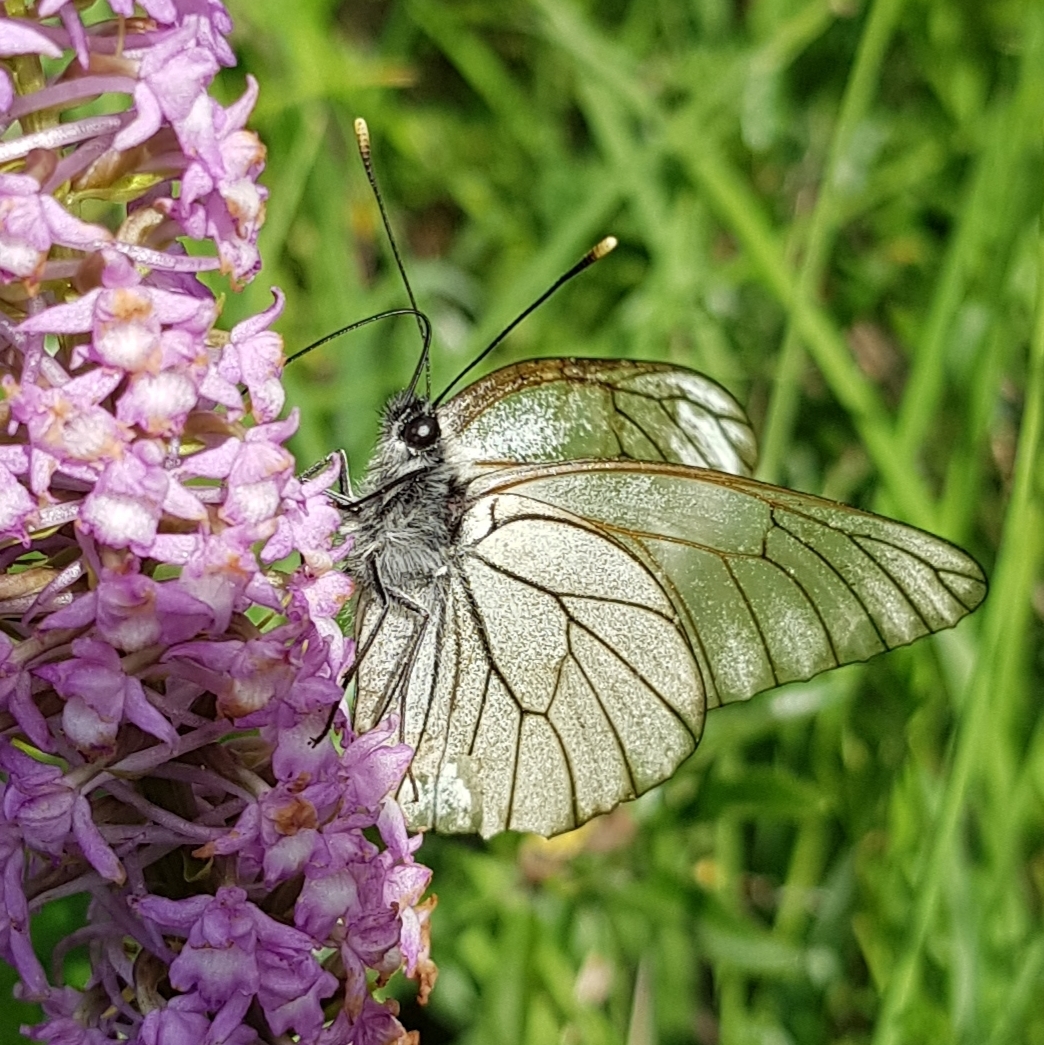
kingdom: Animalia
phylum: Arthropoda
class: Insecta
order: Lepidoptera
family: Pieridae
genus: Aporia
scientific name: Aporia crataegi
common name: Black-veined white
